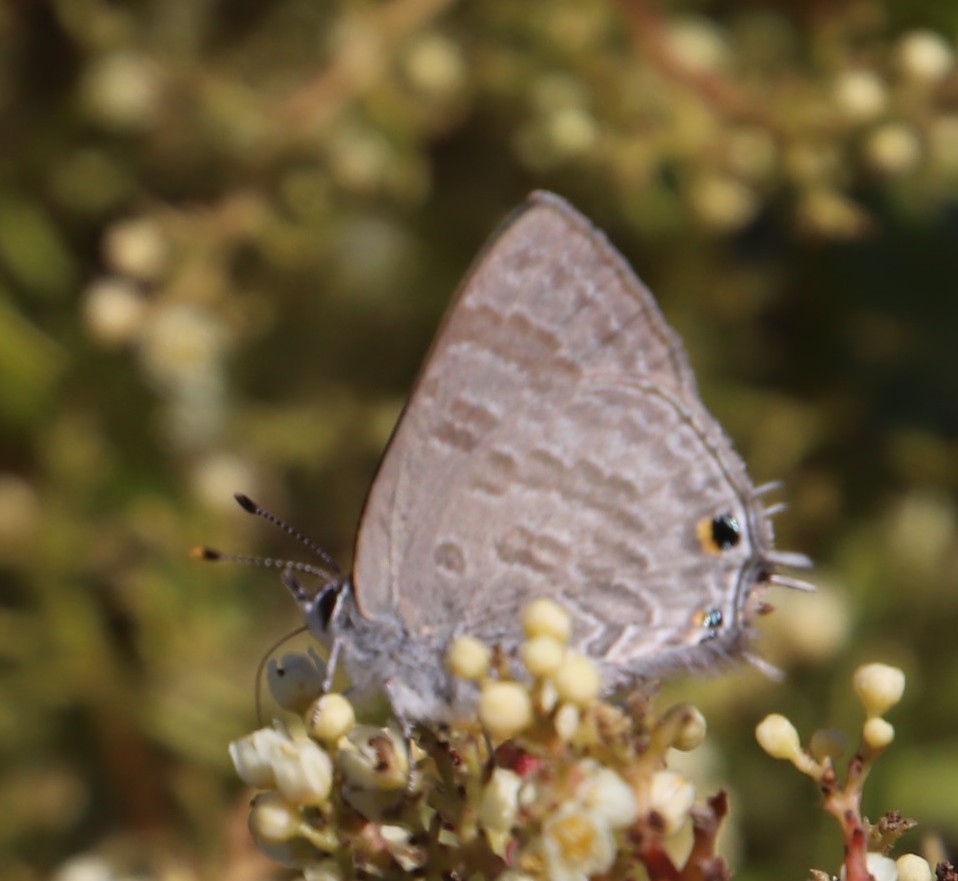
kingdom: Animalia
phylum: Arthropoda
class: Insecta
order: Lepidoptera
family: Lycaenidae
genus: Anthene
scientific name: Anthene definita
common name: Common ciliate blue
